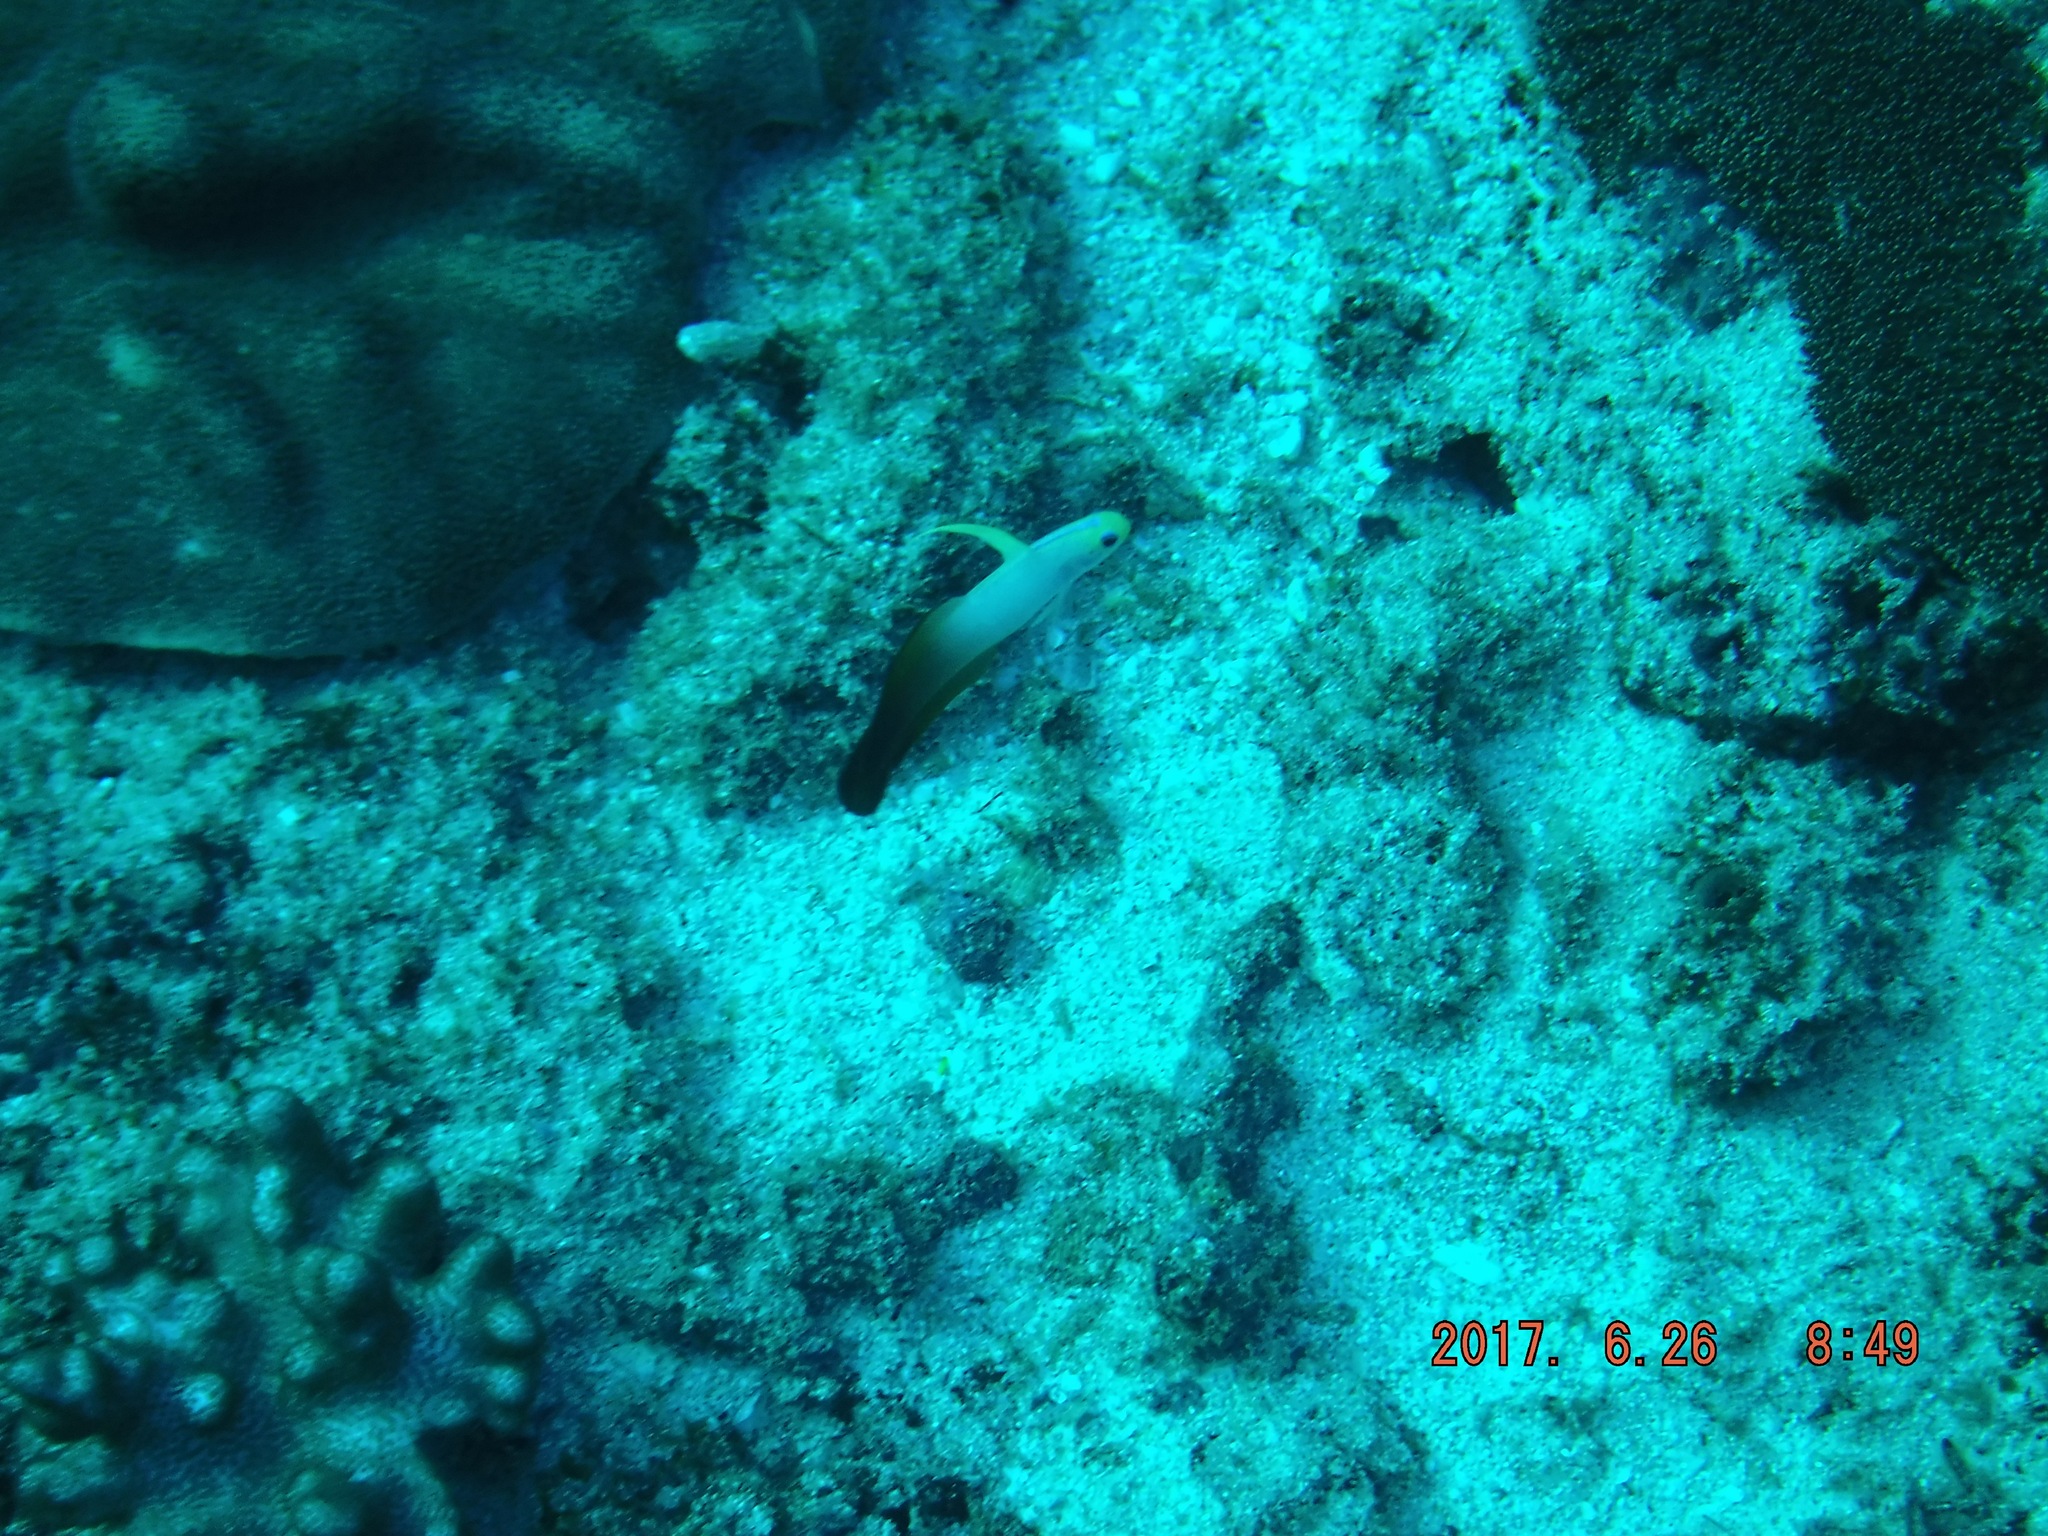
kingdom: Animalia
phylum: Chordata
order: Perciformes
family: Microdesmidae
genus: Nemateleotris
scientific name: Nemateleotris magnifica
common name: Fire goby
